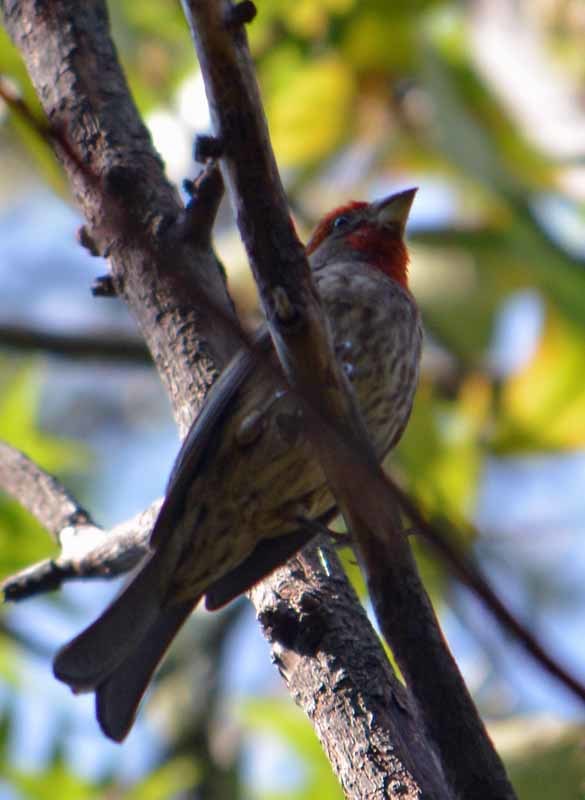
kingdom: Animalia
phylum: Chordata
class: Aves
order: Passeriformes
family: Fringillidae
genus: Haemorhous
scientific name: Haemorhous mexicanus
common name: House finch
